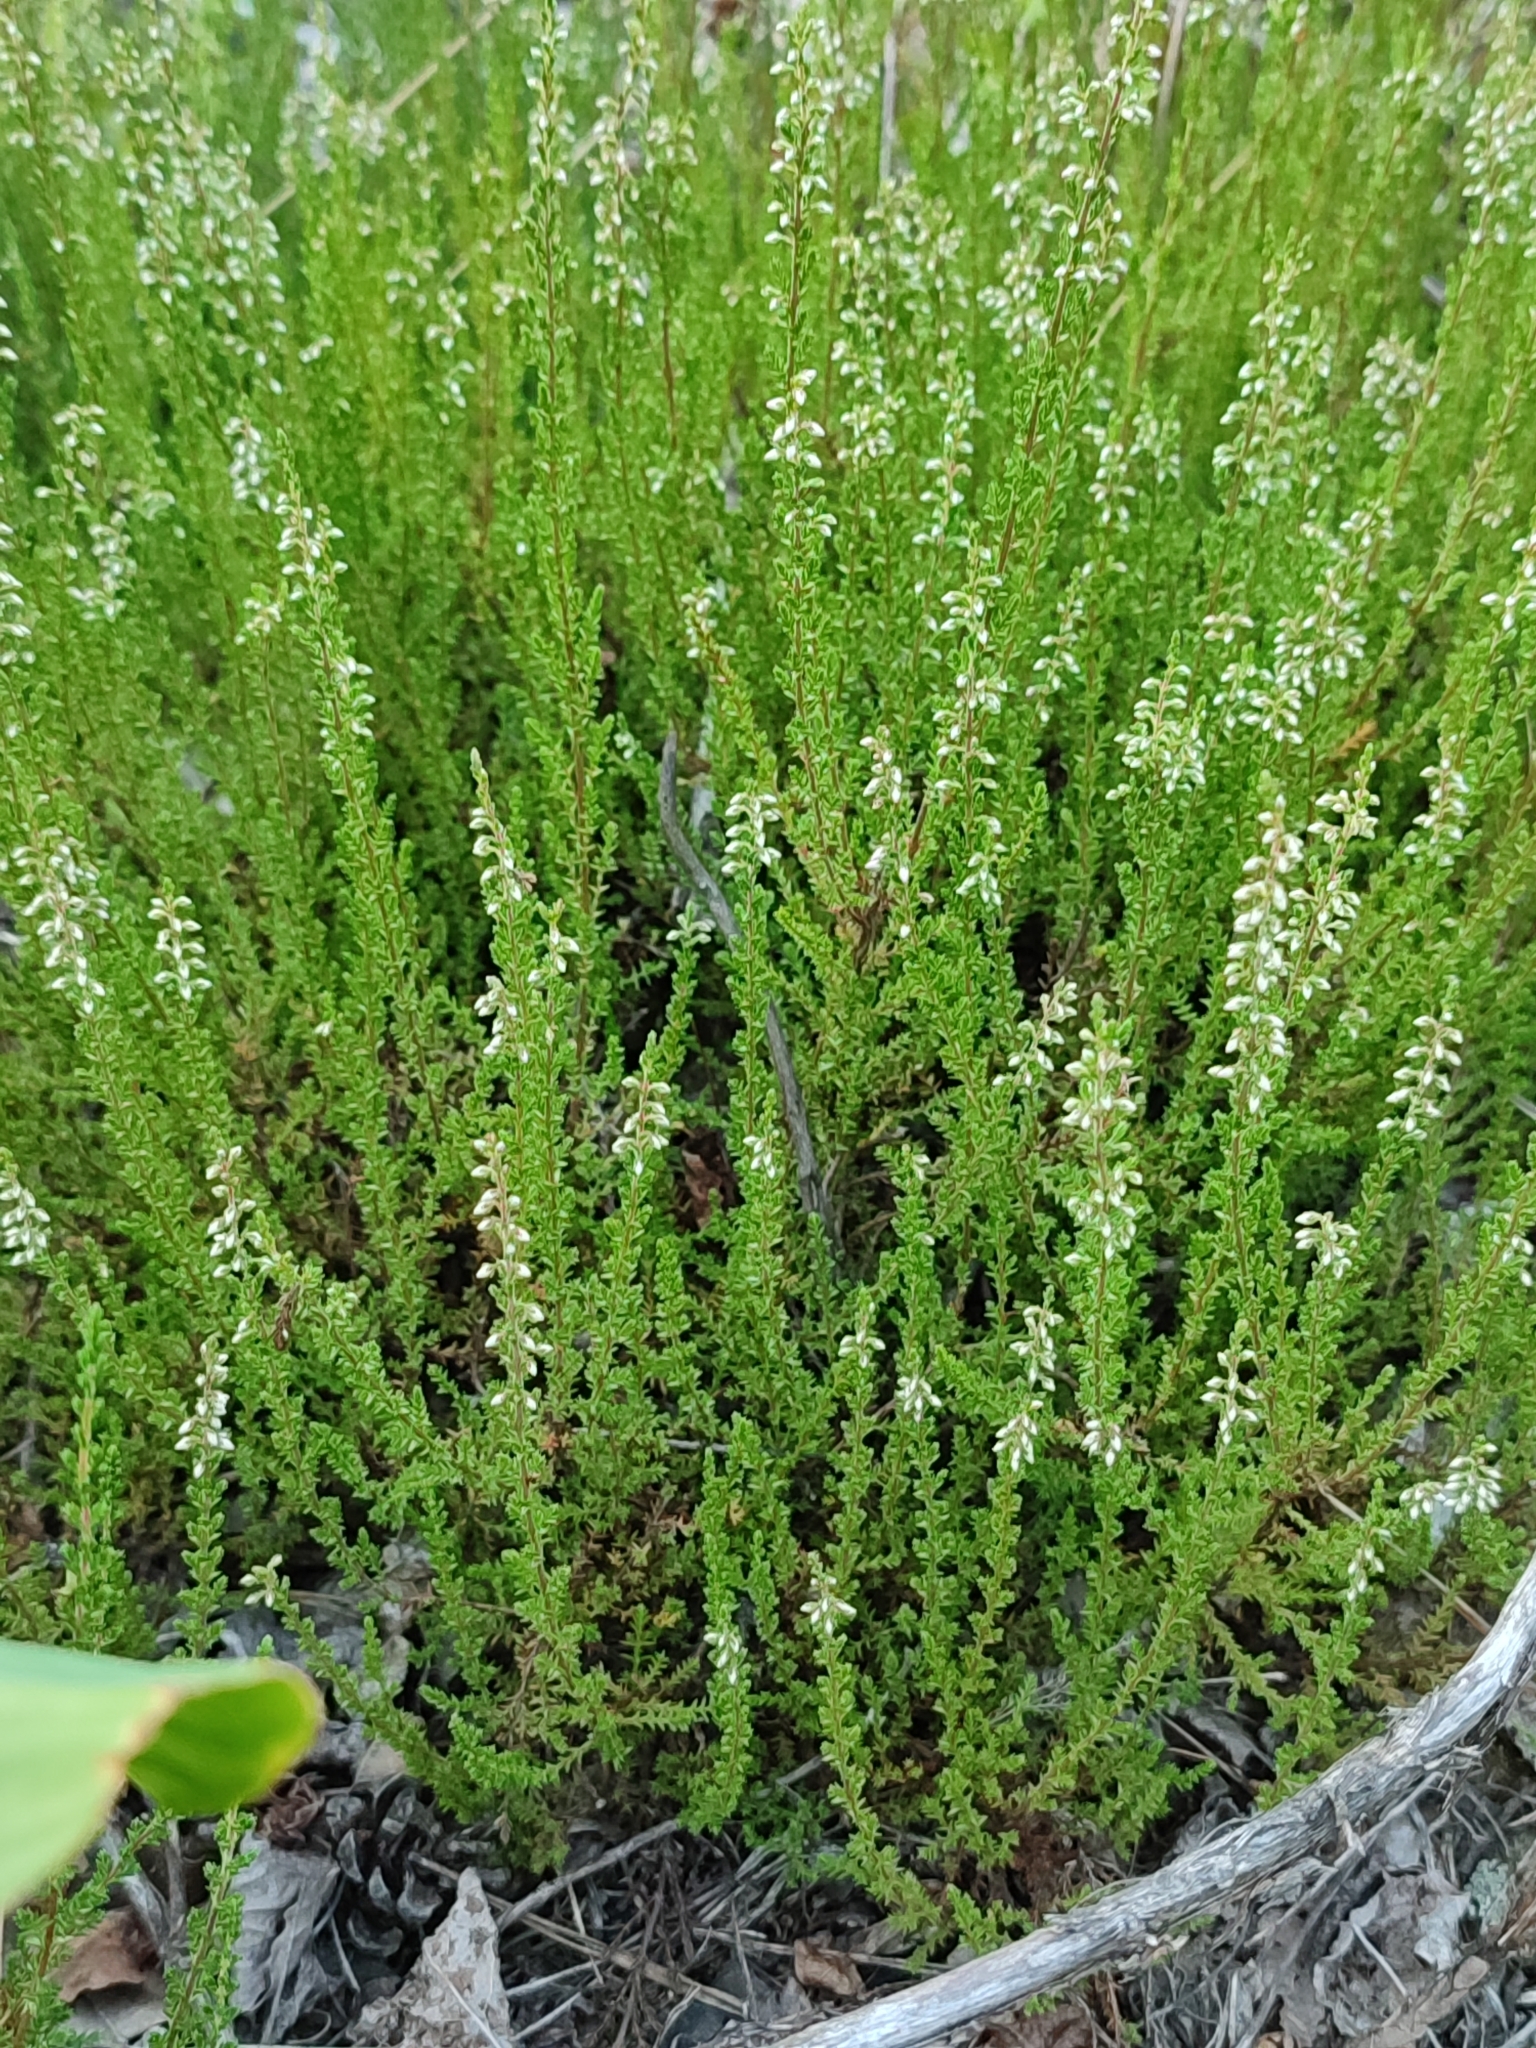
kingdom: Plantae
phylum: Tracheophyta
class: Magnoliopsida
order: Ericales
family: Ericaceae
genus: Calluna
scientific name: Calluna vulgaris
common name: Heather
